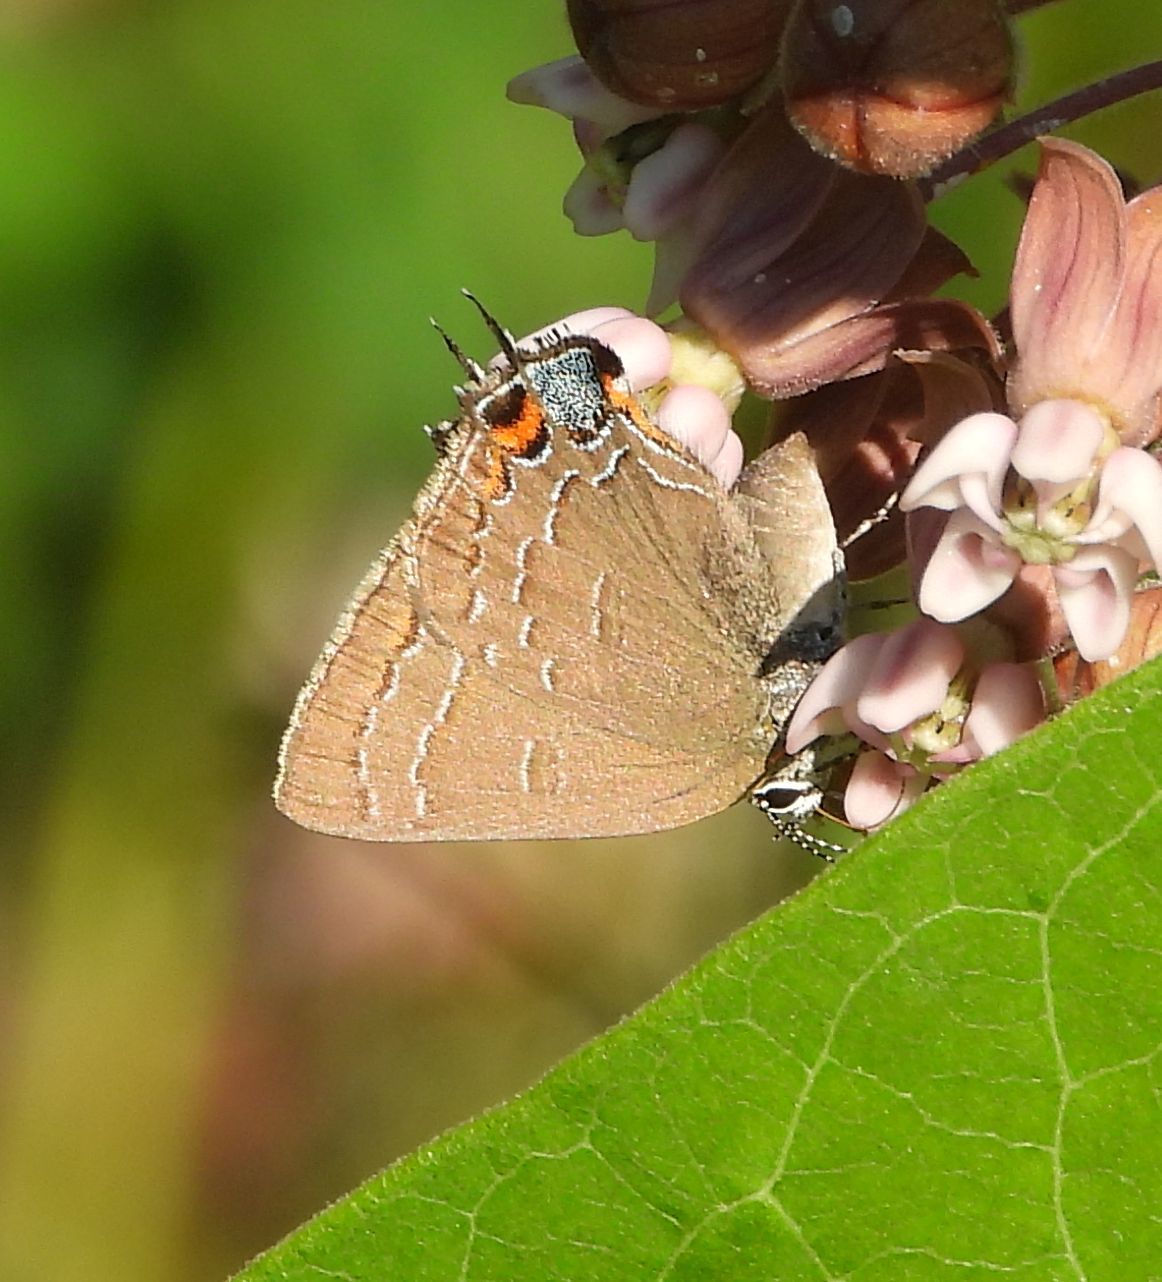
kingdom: Animalia
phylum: Arthropoda
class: Insecta
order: Lepidoptera
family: Lycaenidae
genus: Satyrium
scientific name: Satyrium calanus
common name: Banded hairstreak
